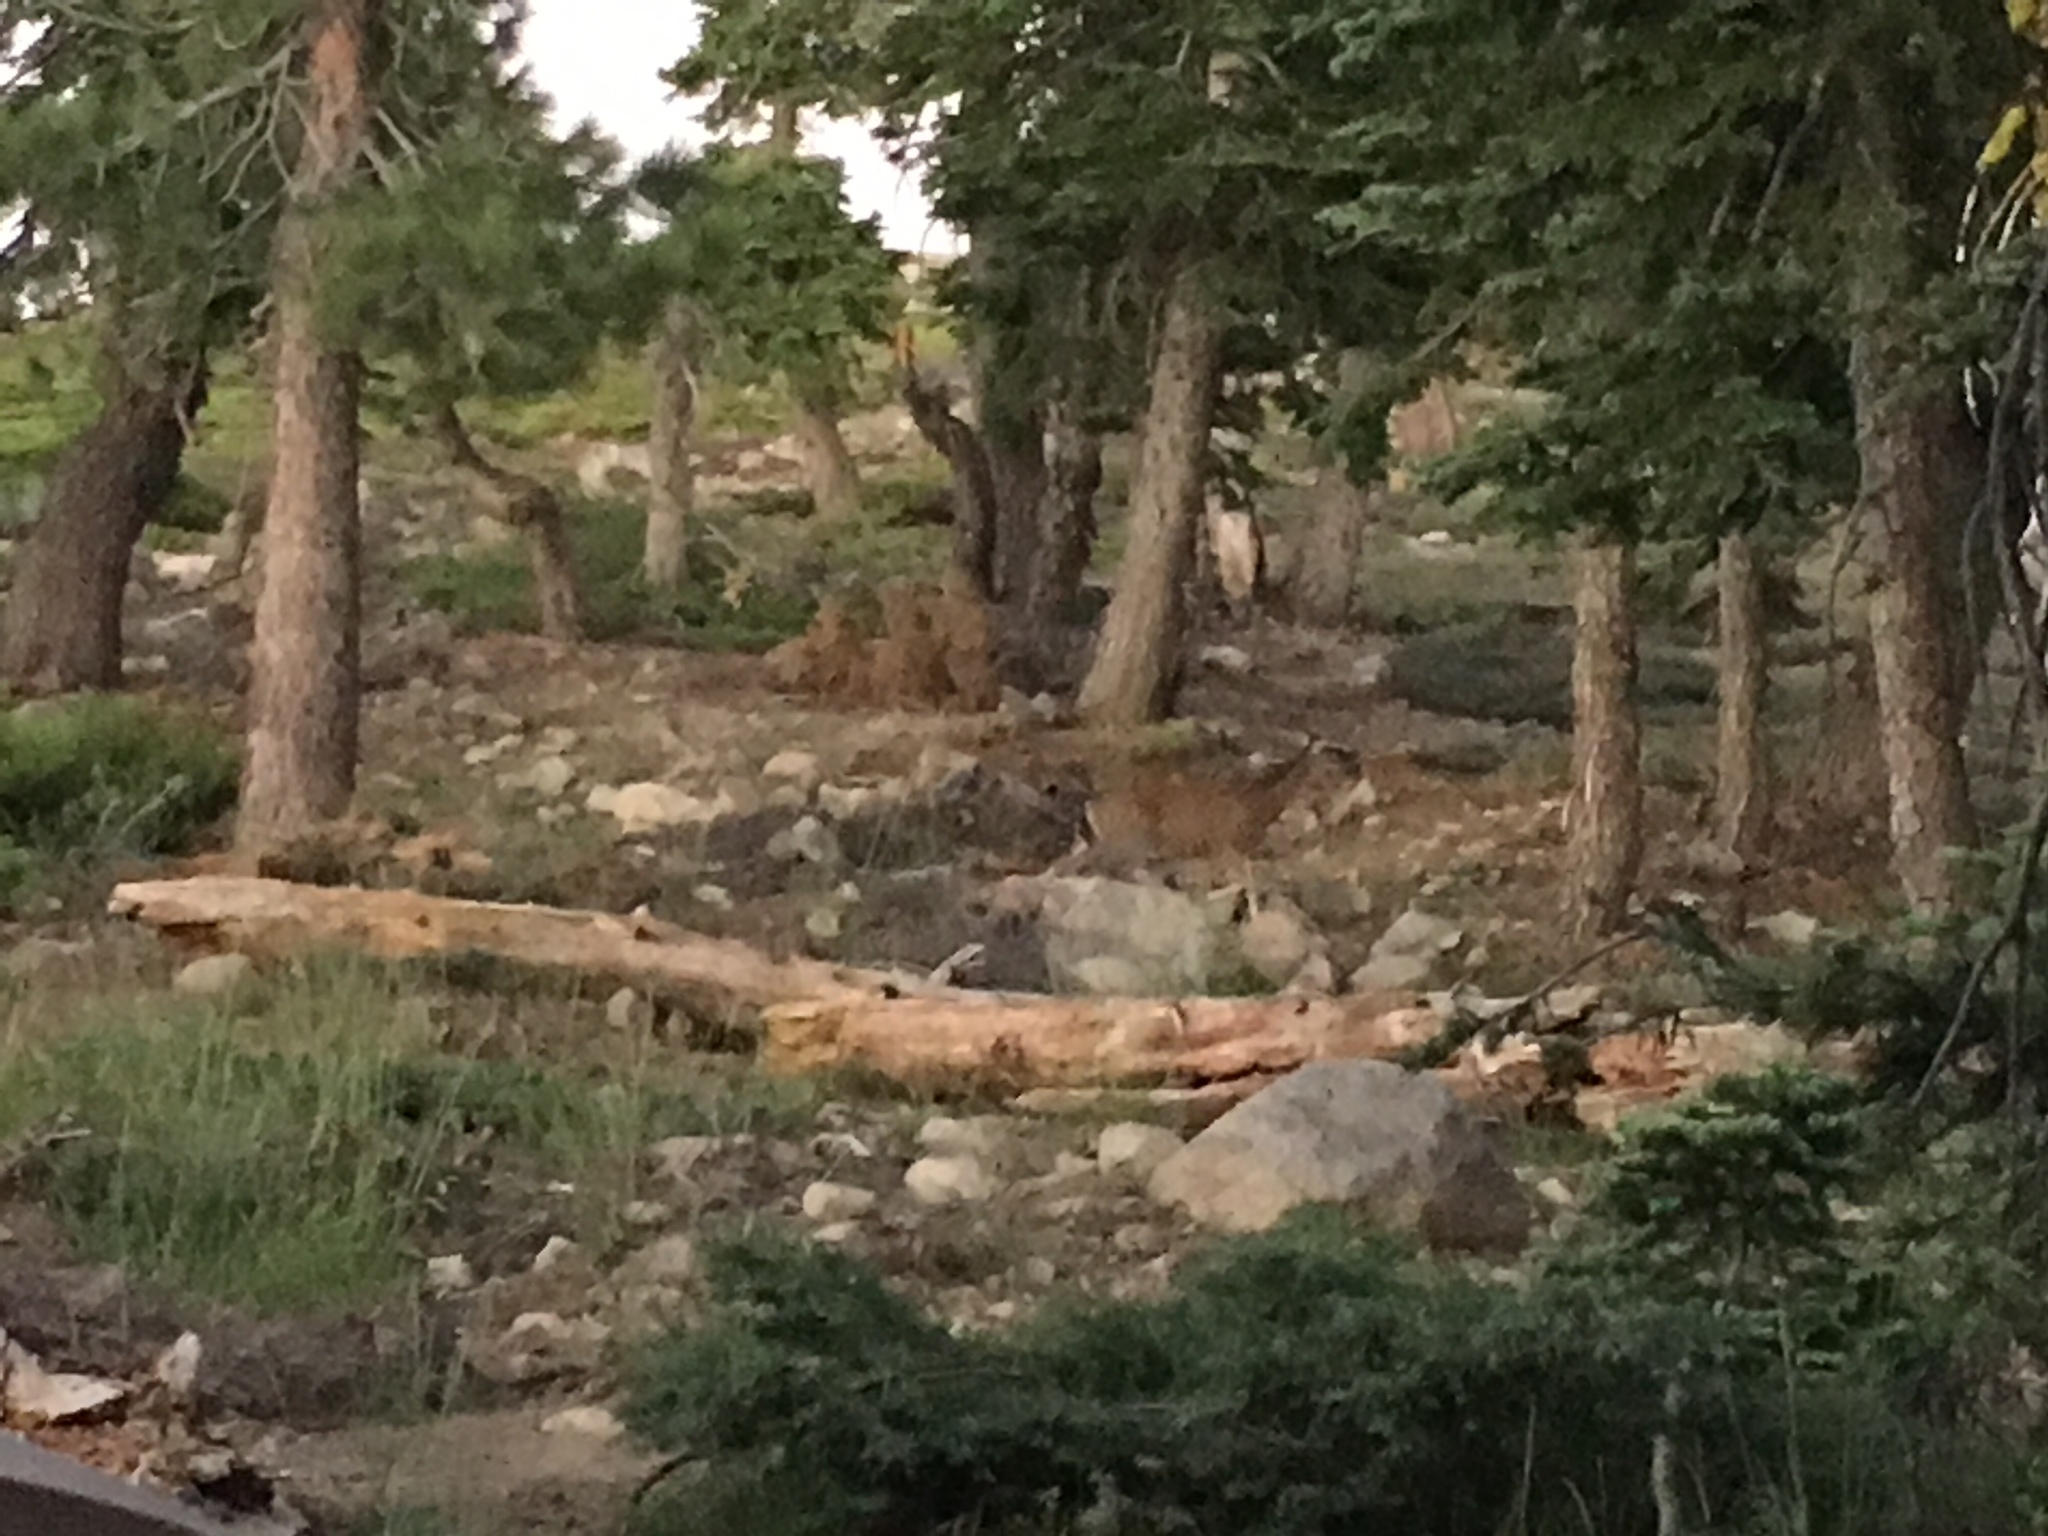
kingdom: Animalia
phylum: Chordata
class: Mammalia
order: Artiodactyla
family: Cervidae
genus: Odocoileus
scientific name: Odocoileus hemionus
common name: Mule deer
